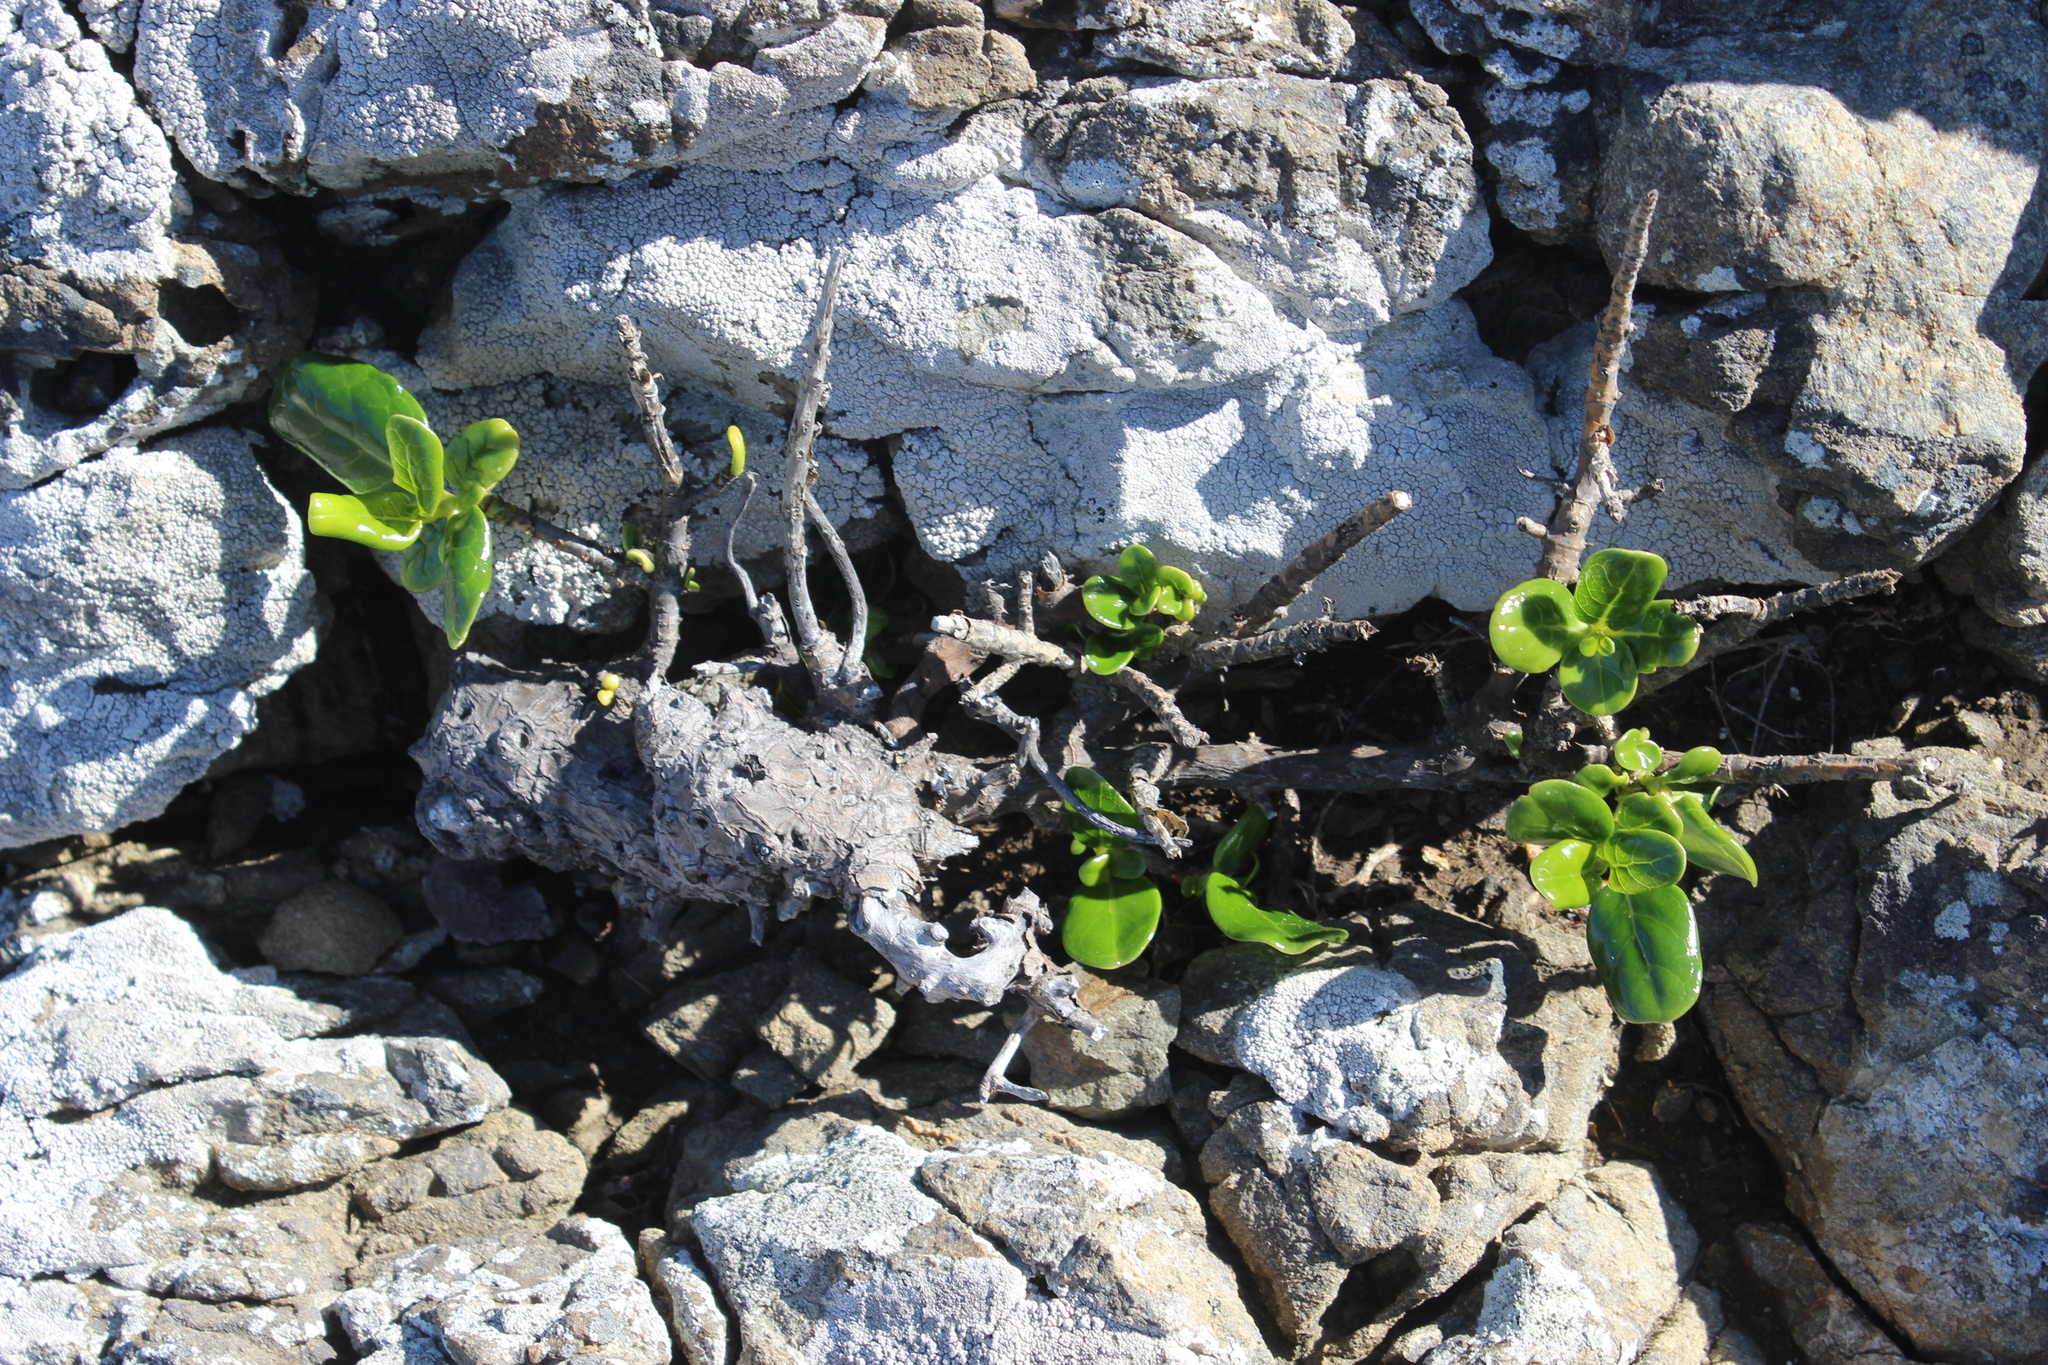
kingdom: Plantae
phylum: Tracheophyta
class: Magnoliopsida
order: Gentianales
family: Rubiaceae
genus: Coprosma
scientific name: Coprosma repens
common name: Tree bedstraw
